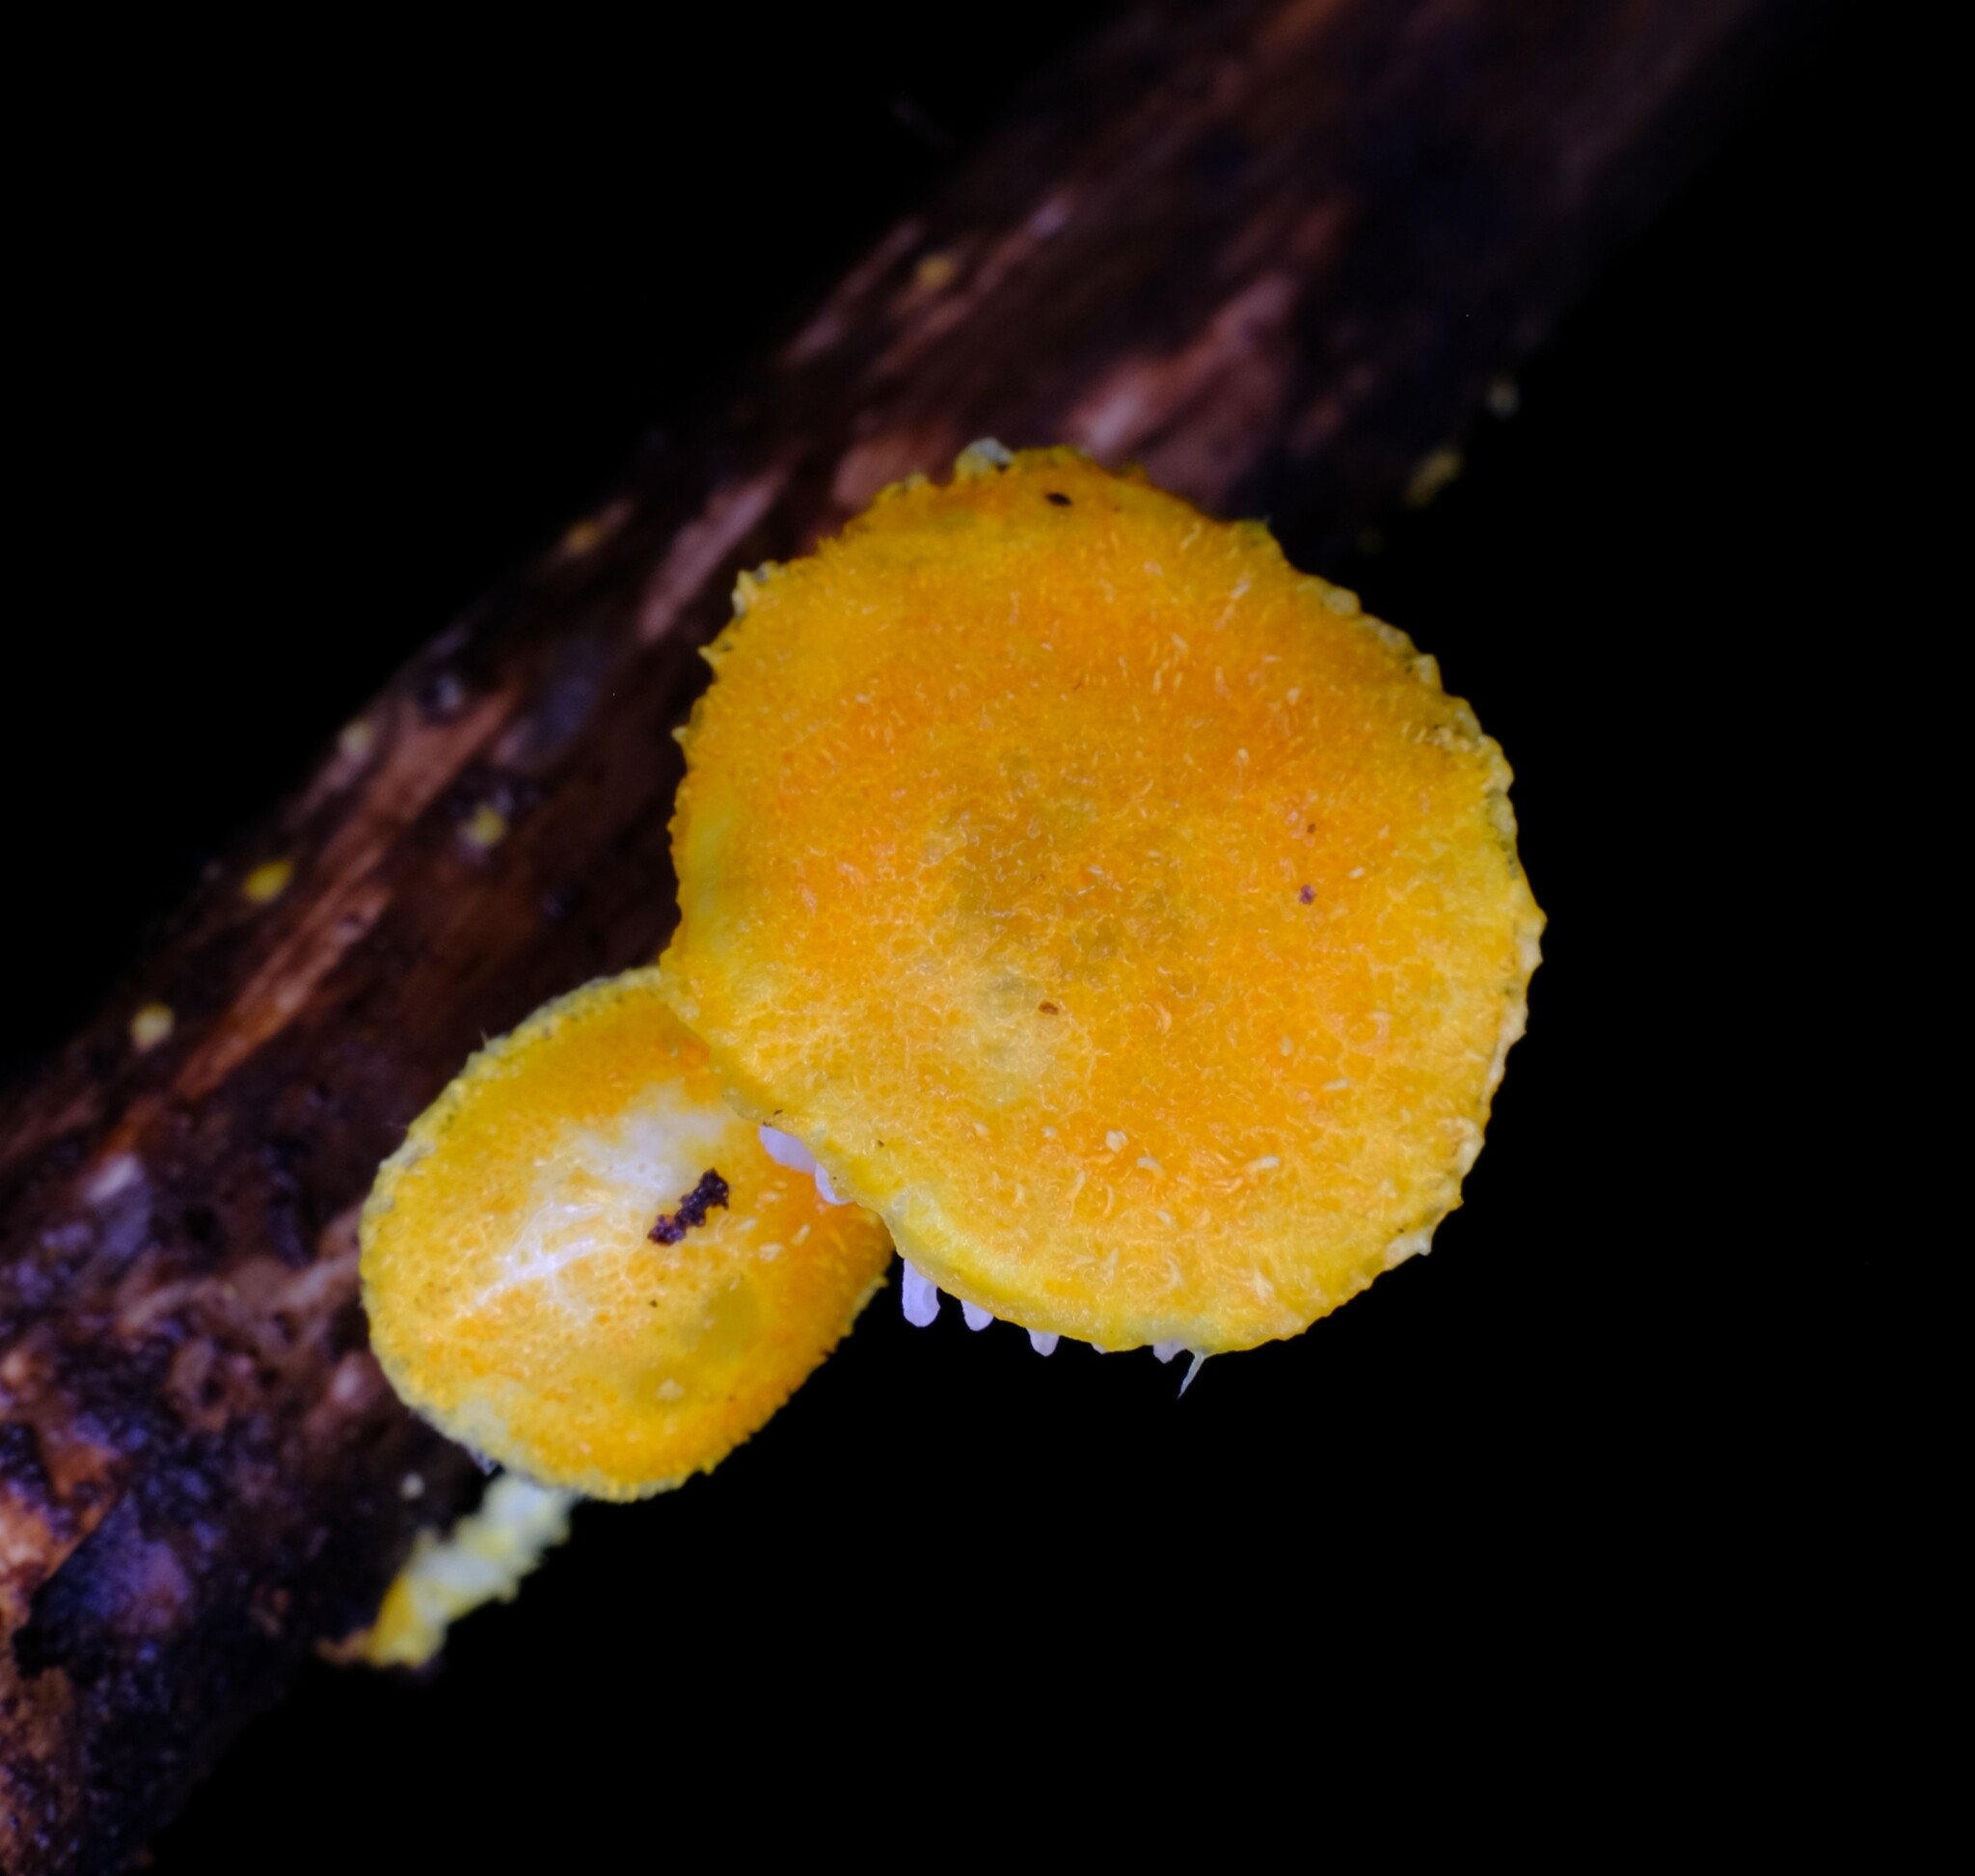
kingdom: Fungi
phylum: Basidiomycota
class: Agaricomycetes
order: Agaricales
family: Physalacriaceae
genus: Cyptotrama
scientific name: Cyptotrama asprata
